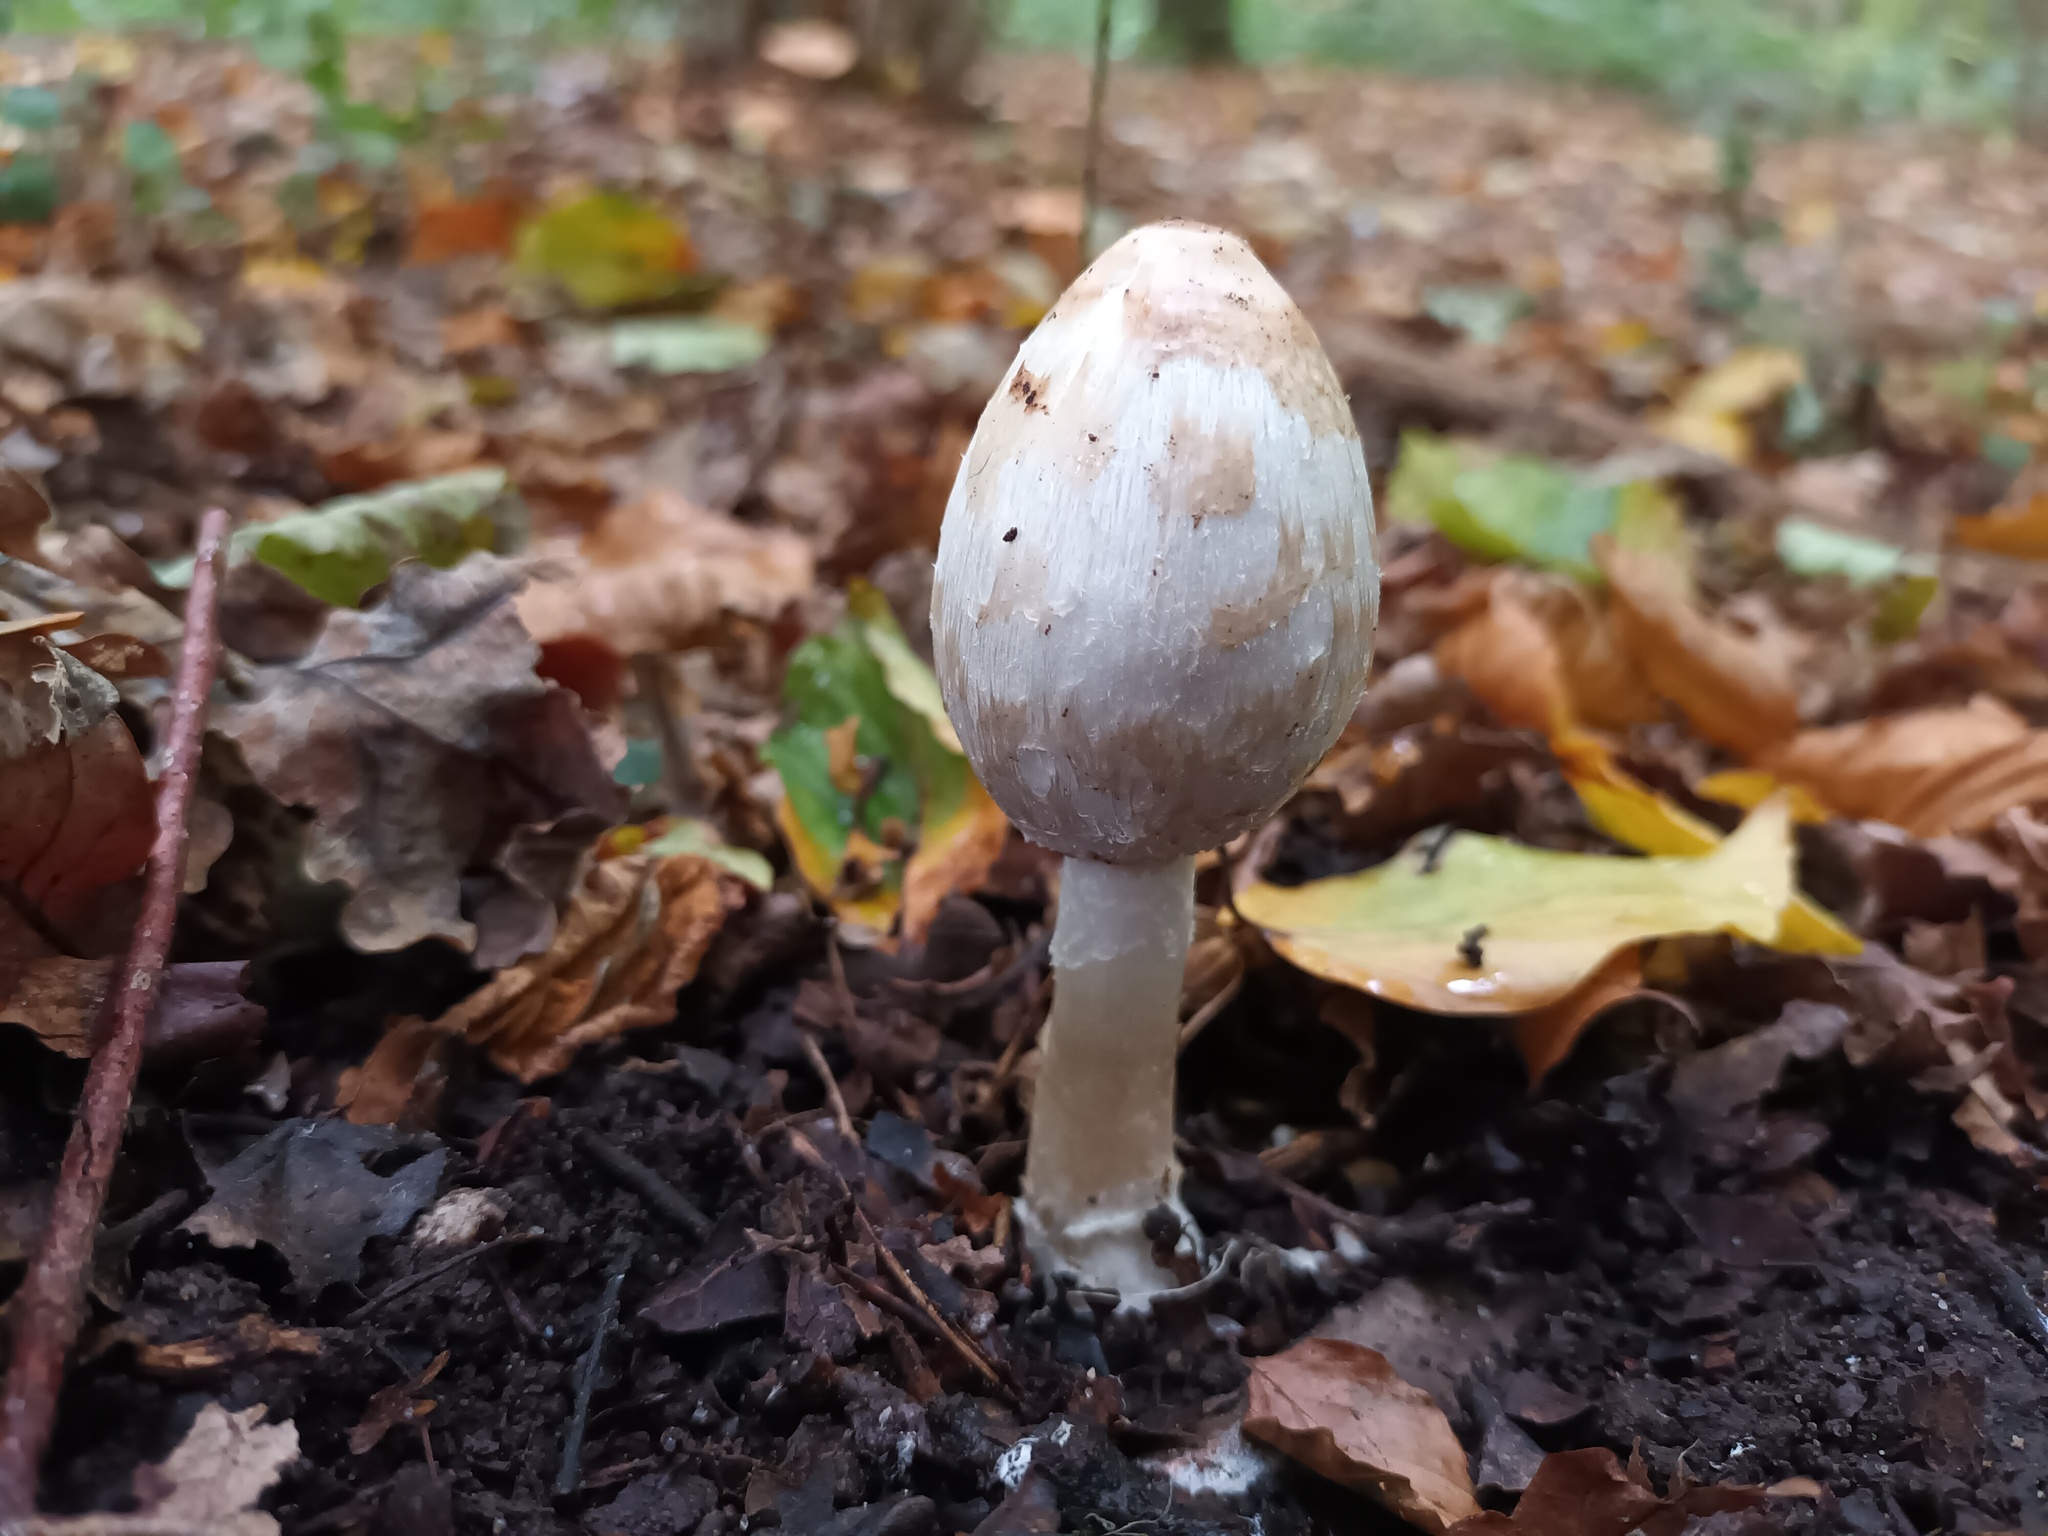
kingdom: Fungi
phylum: Basidiomycota
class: Agaricomycetes
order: Agaricales
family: Agaricaceae
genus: Coprinus
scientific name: Coprinus comatus
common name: Lawyer's wig
